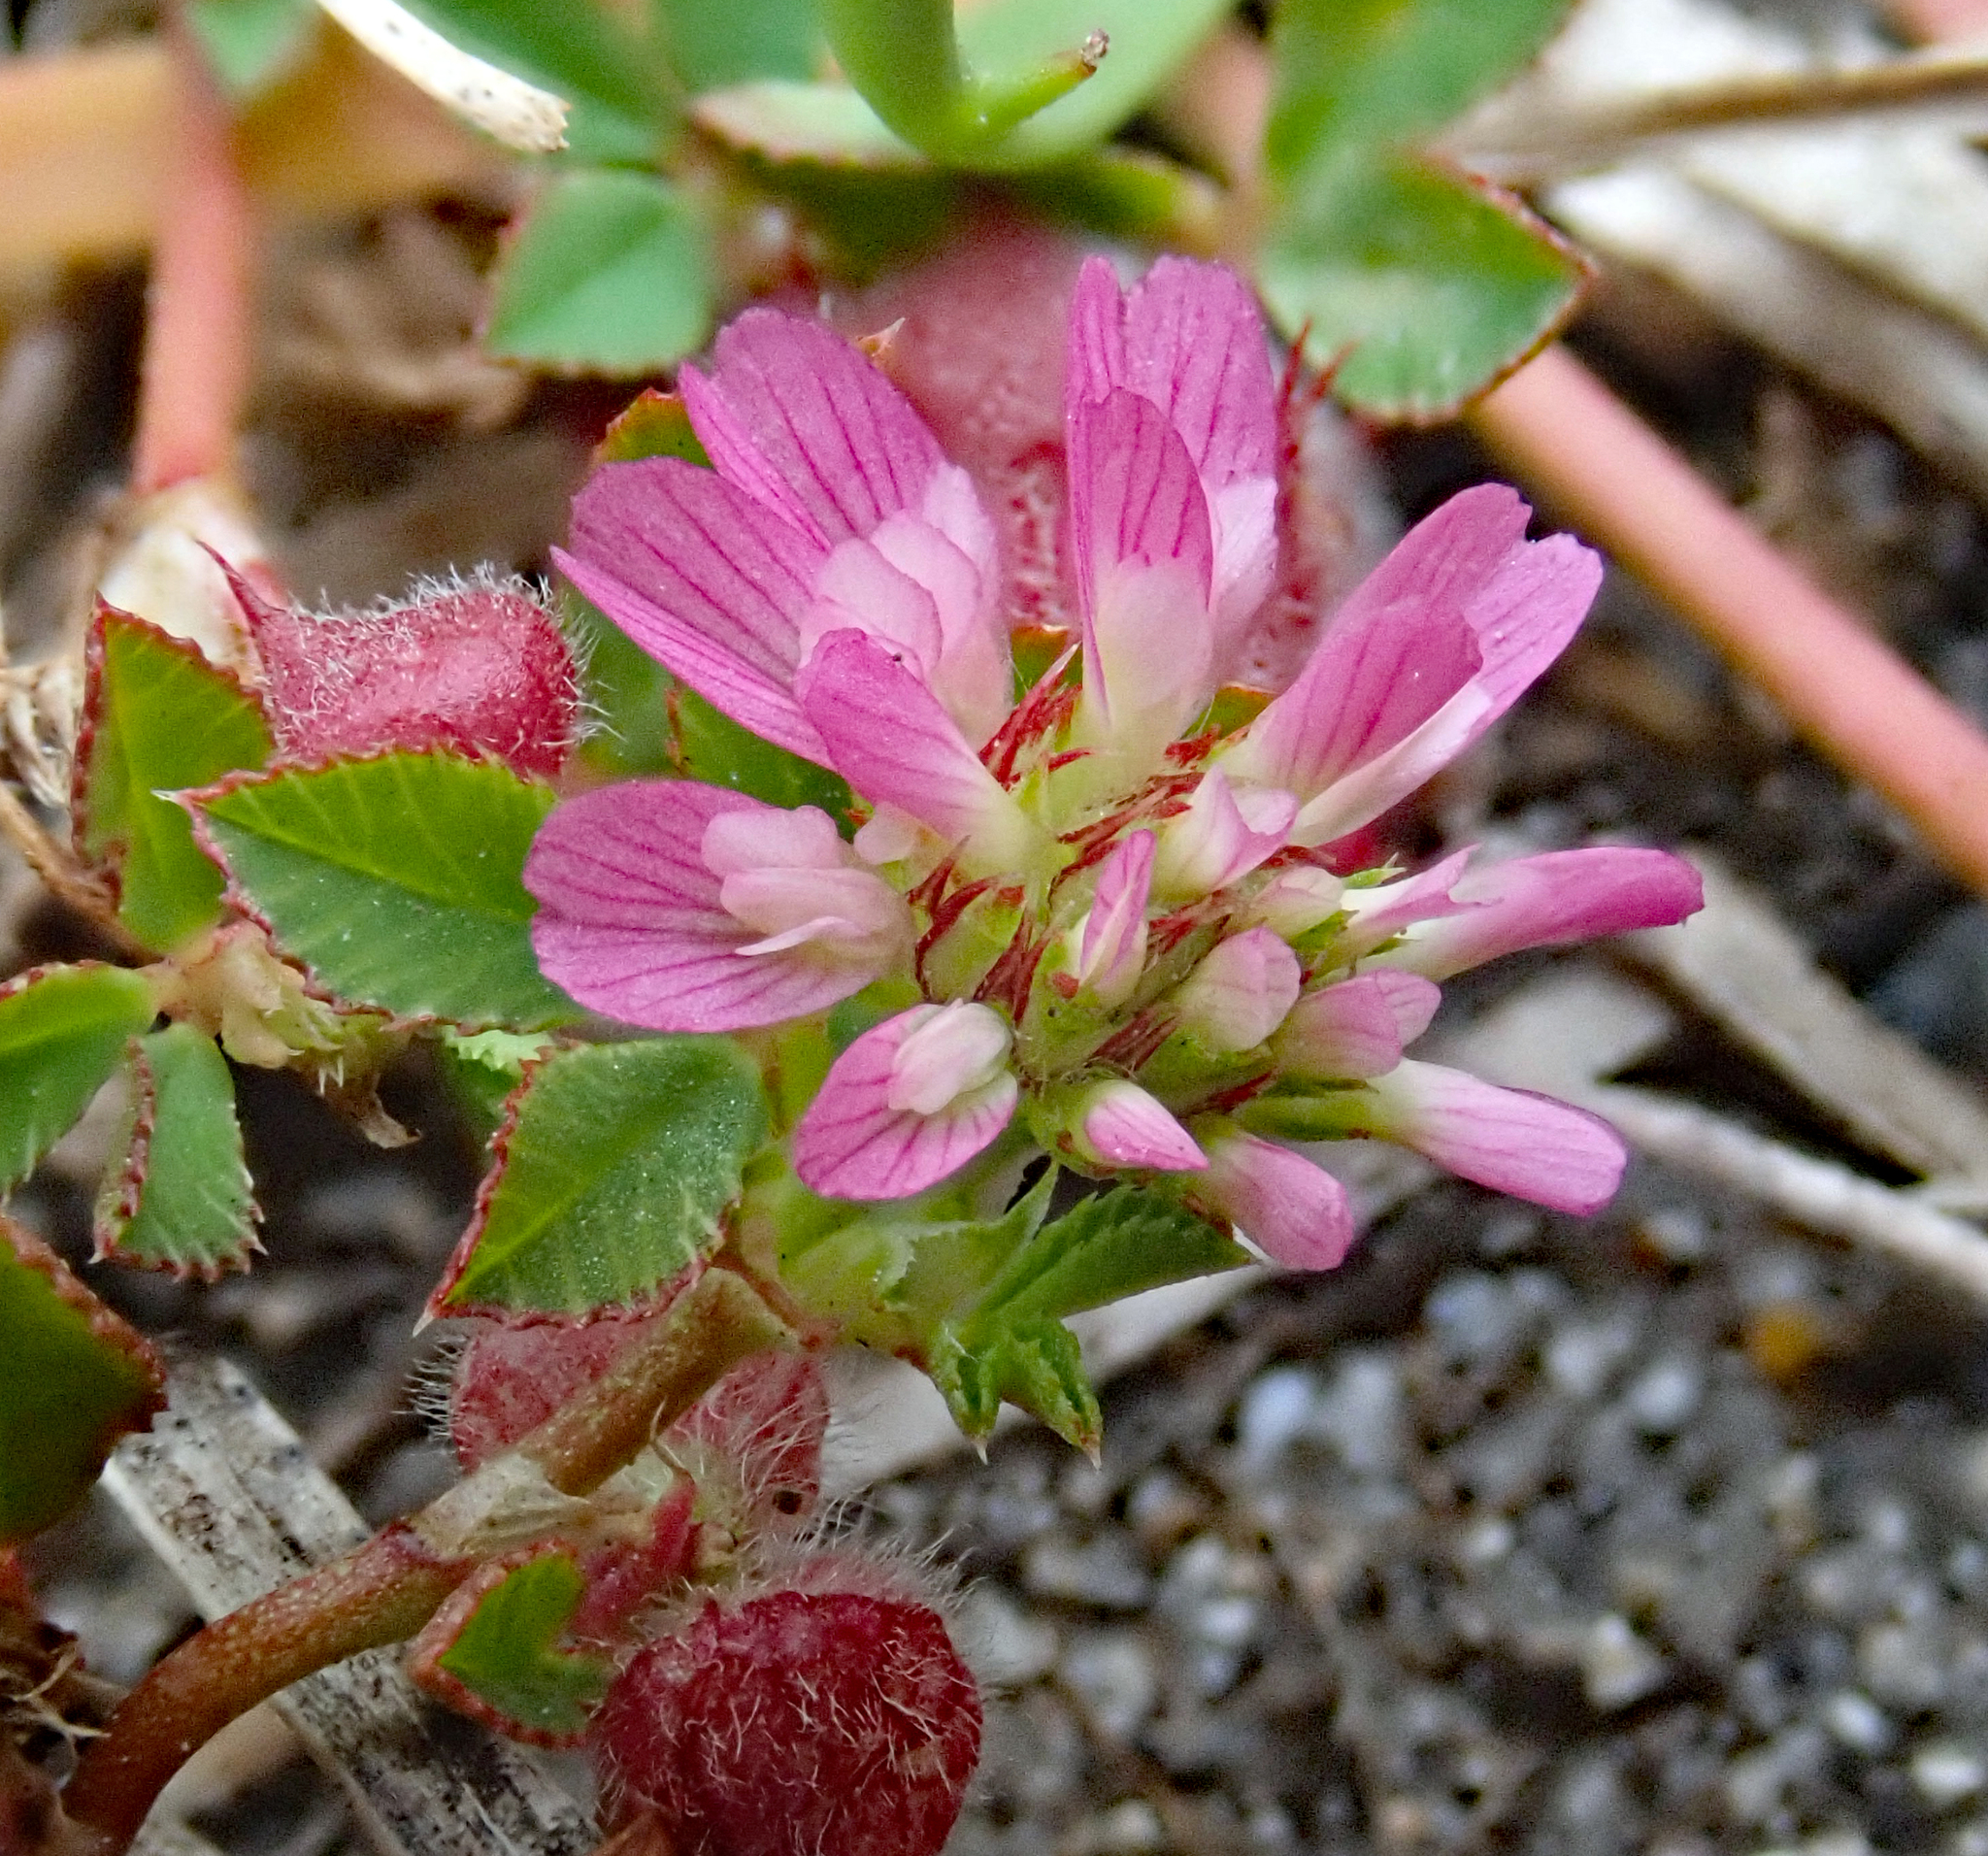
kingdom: Plantae
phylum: Tracheophyta
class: Magnoliopsida
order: Fabales
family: Fabaceae
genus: Trifolium
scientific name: Trifolium resupinatum
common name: Reversed clover
